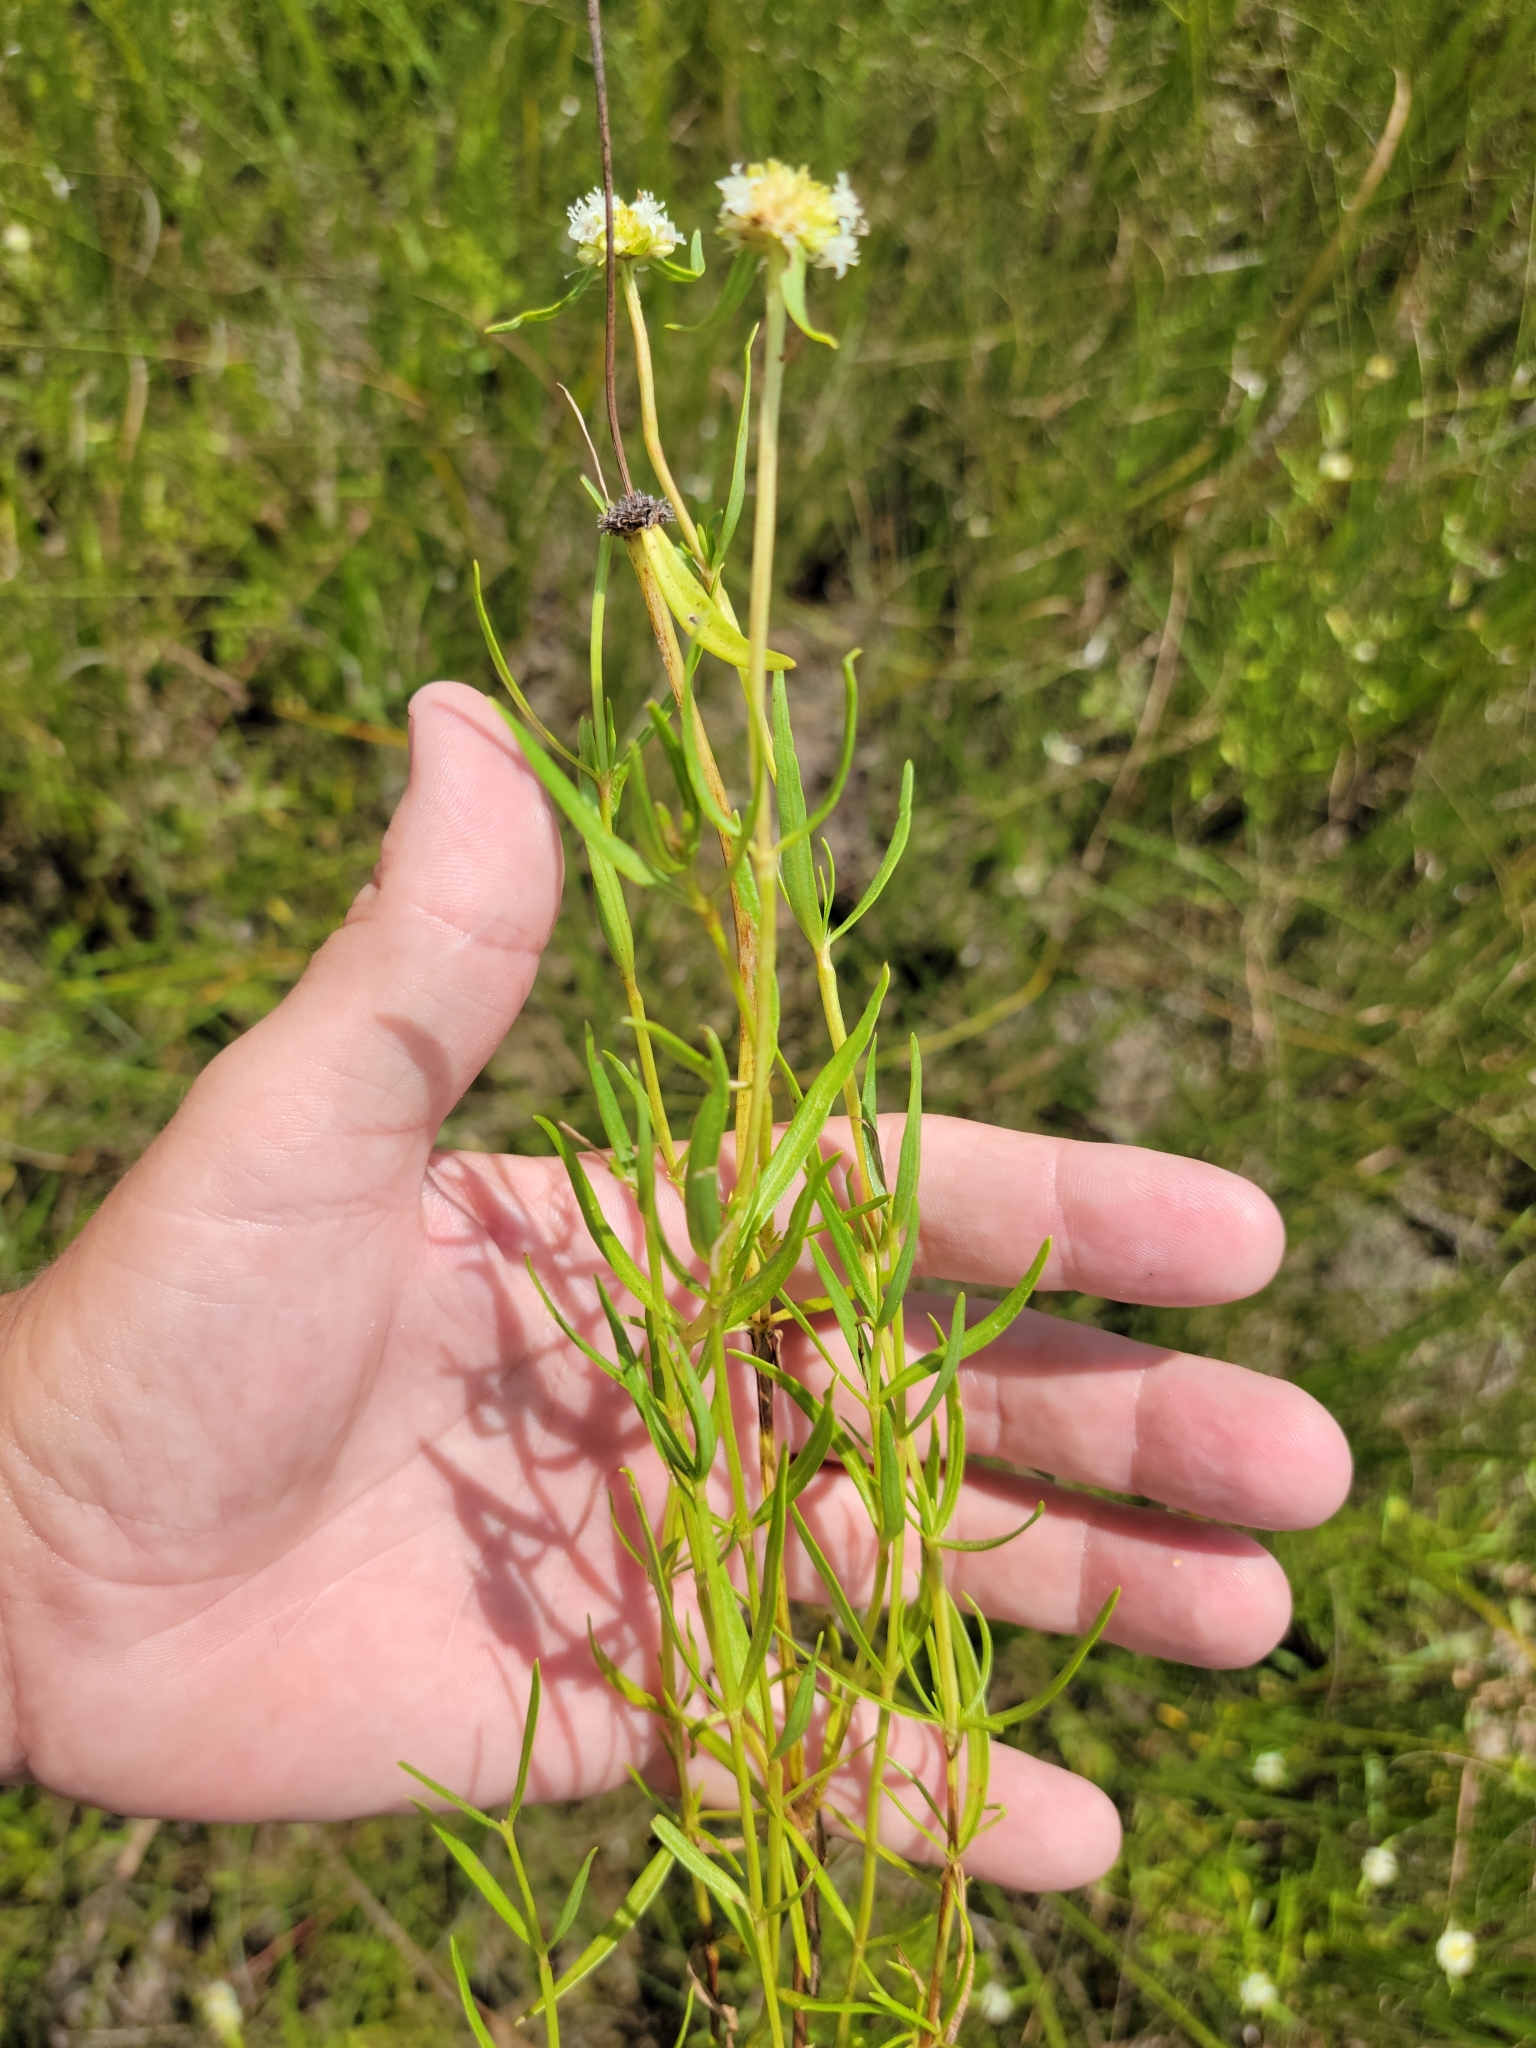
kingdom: Plantae
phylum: Tracheophyta
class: Magnoliopsida
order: Gentianales
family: Rubiaceae
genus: Spermacoce
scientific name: Spermacoce neoterminalis
